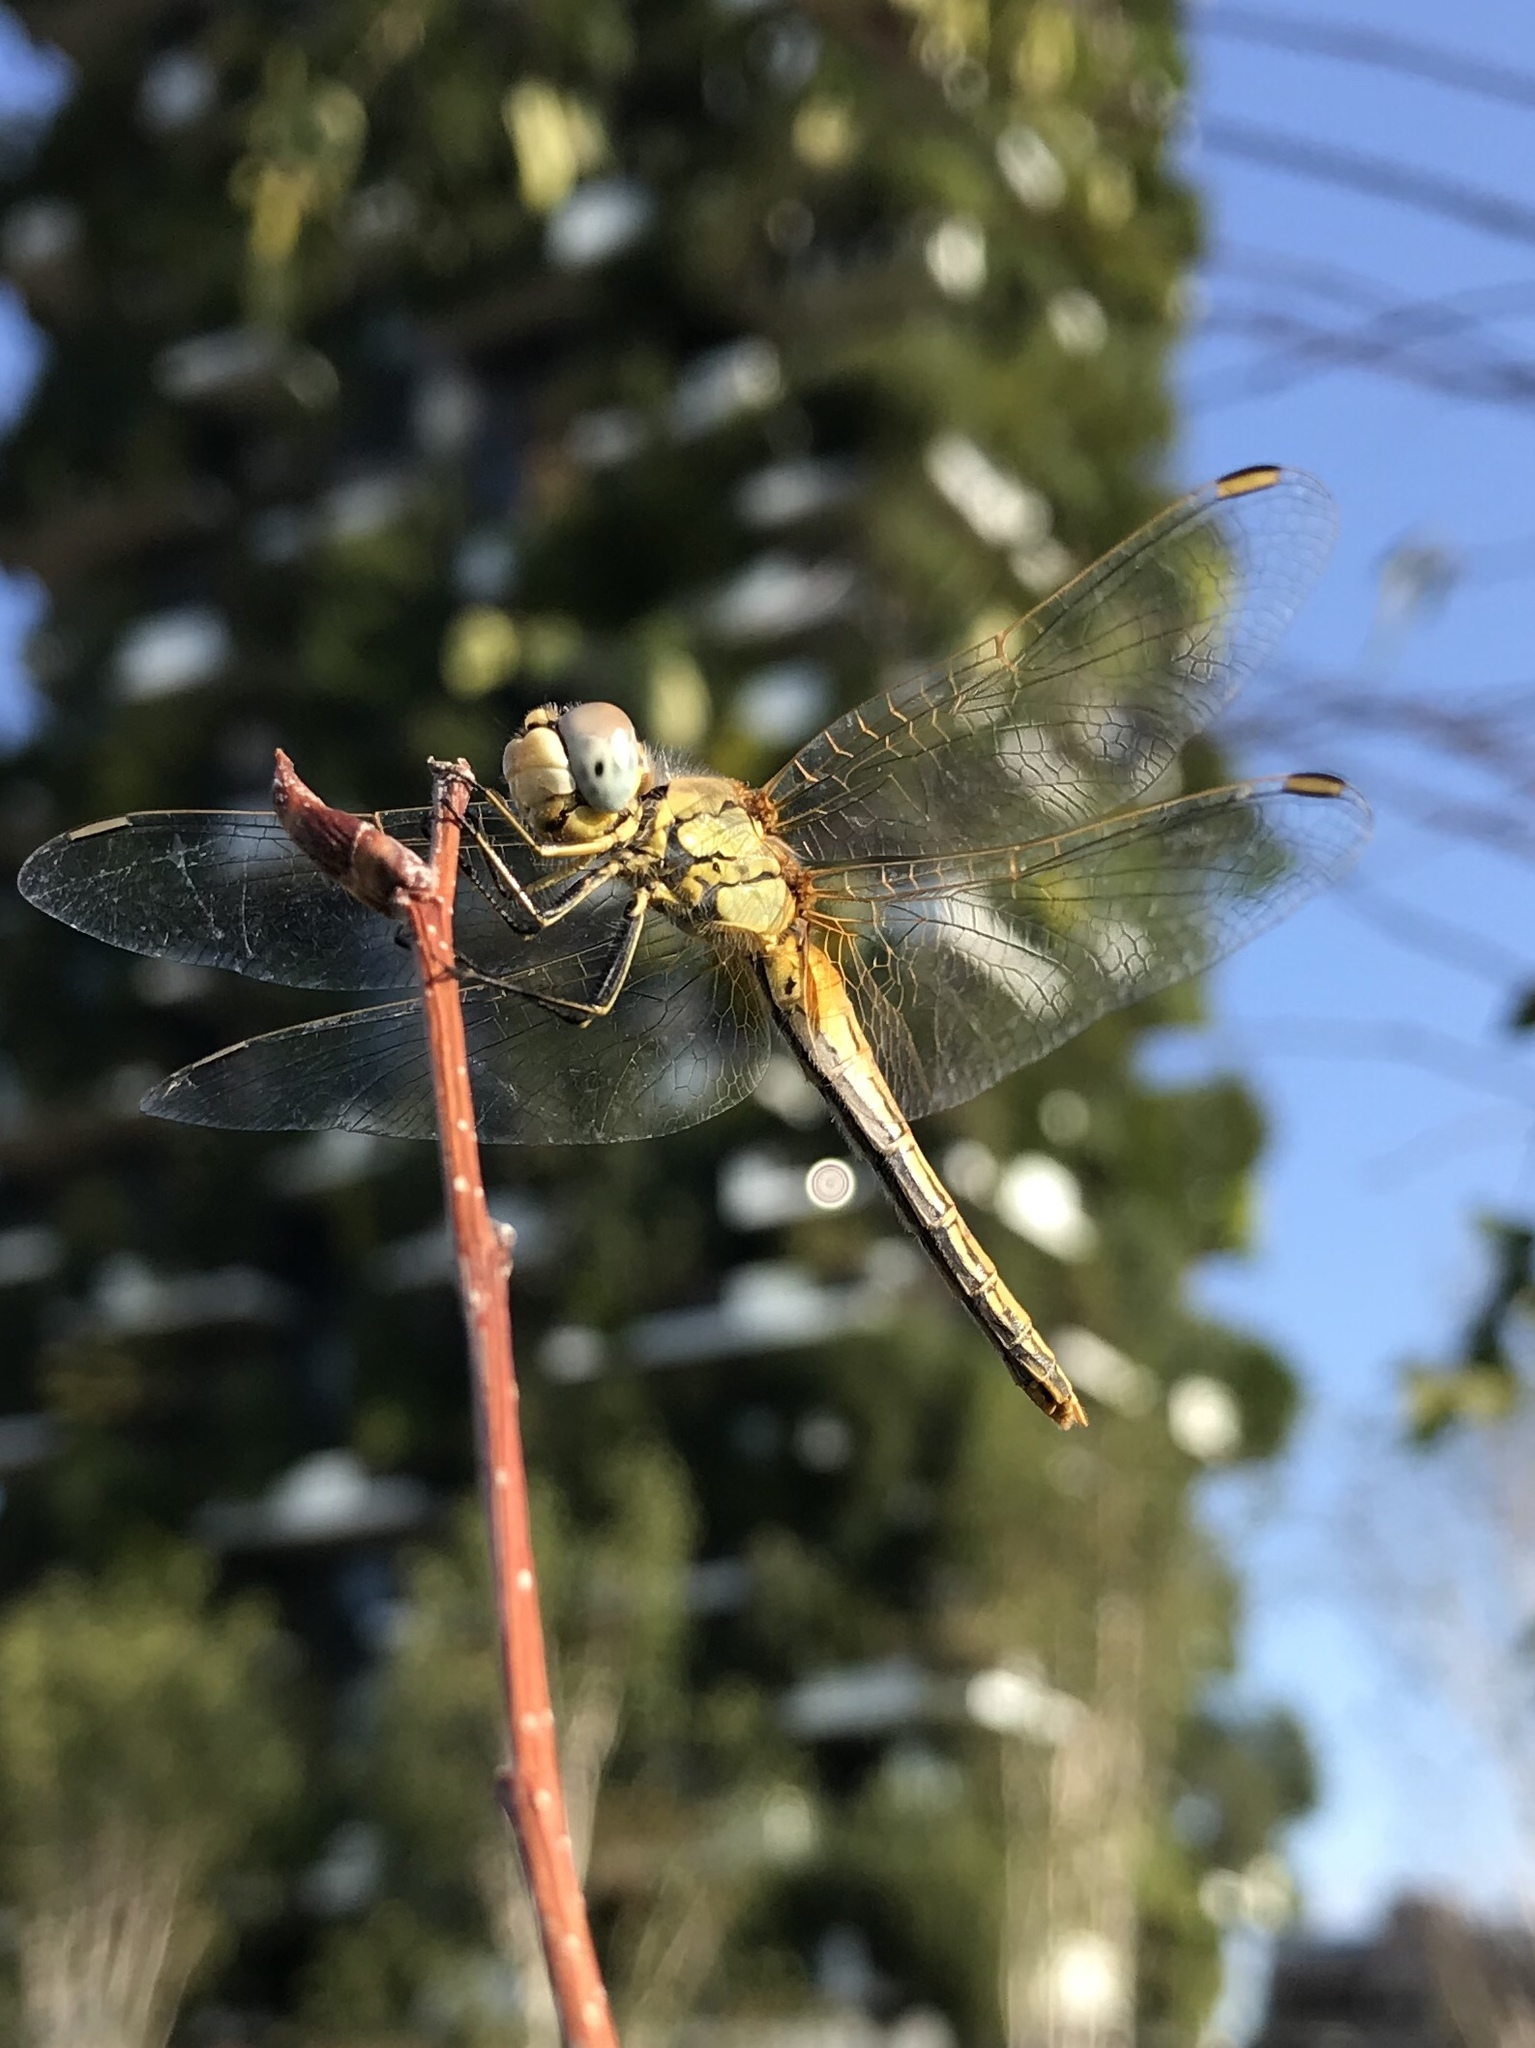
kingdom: Animalia
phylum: Arthropoda
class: Insecta
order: Odonata
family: Libellulidae
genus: Sympetrum
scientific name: Sympetrum fonscolombii
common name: Red-veined darter
